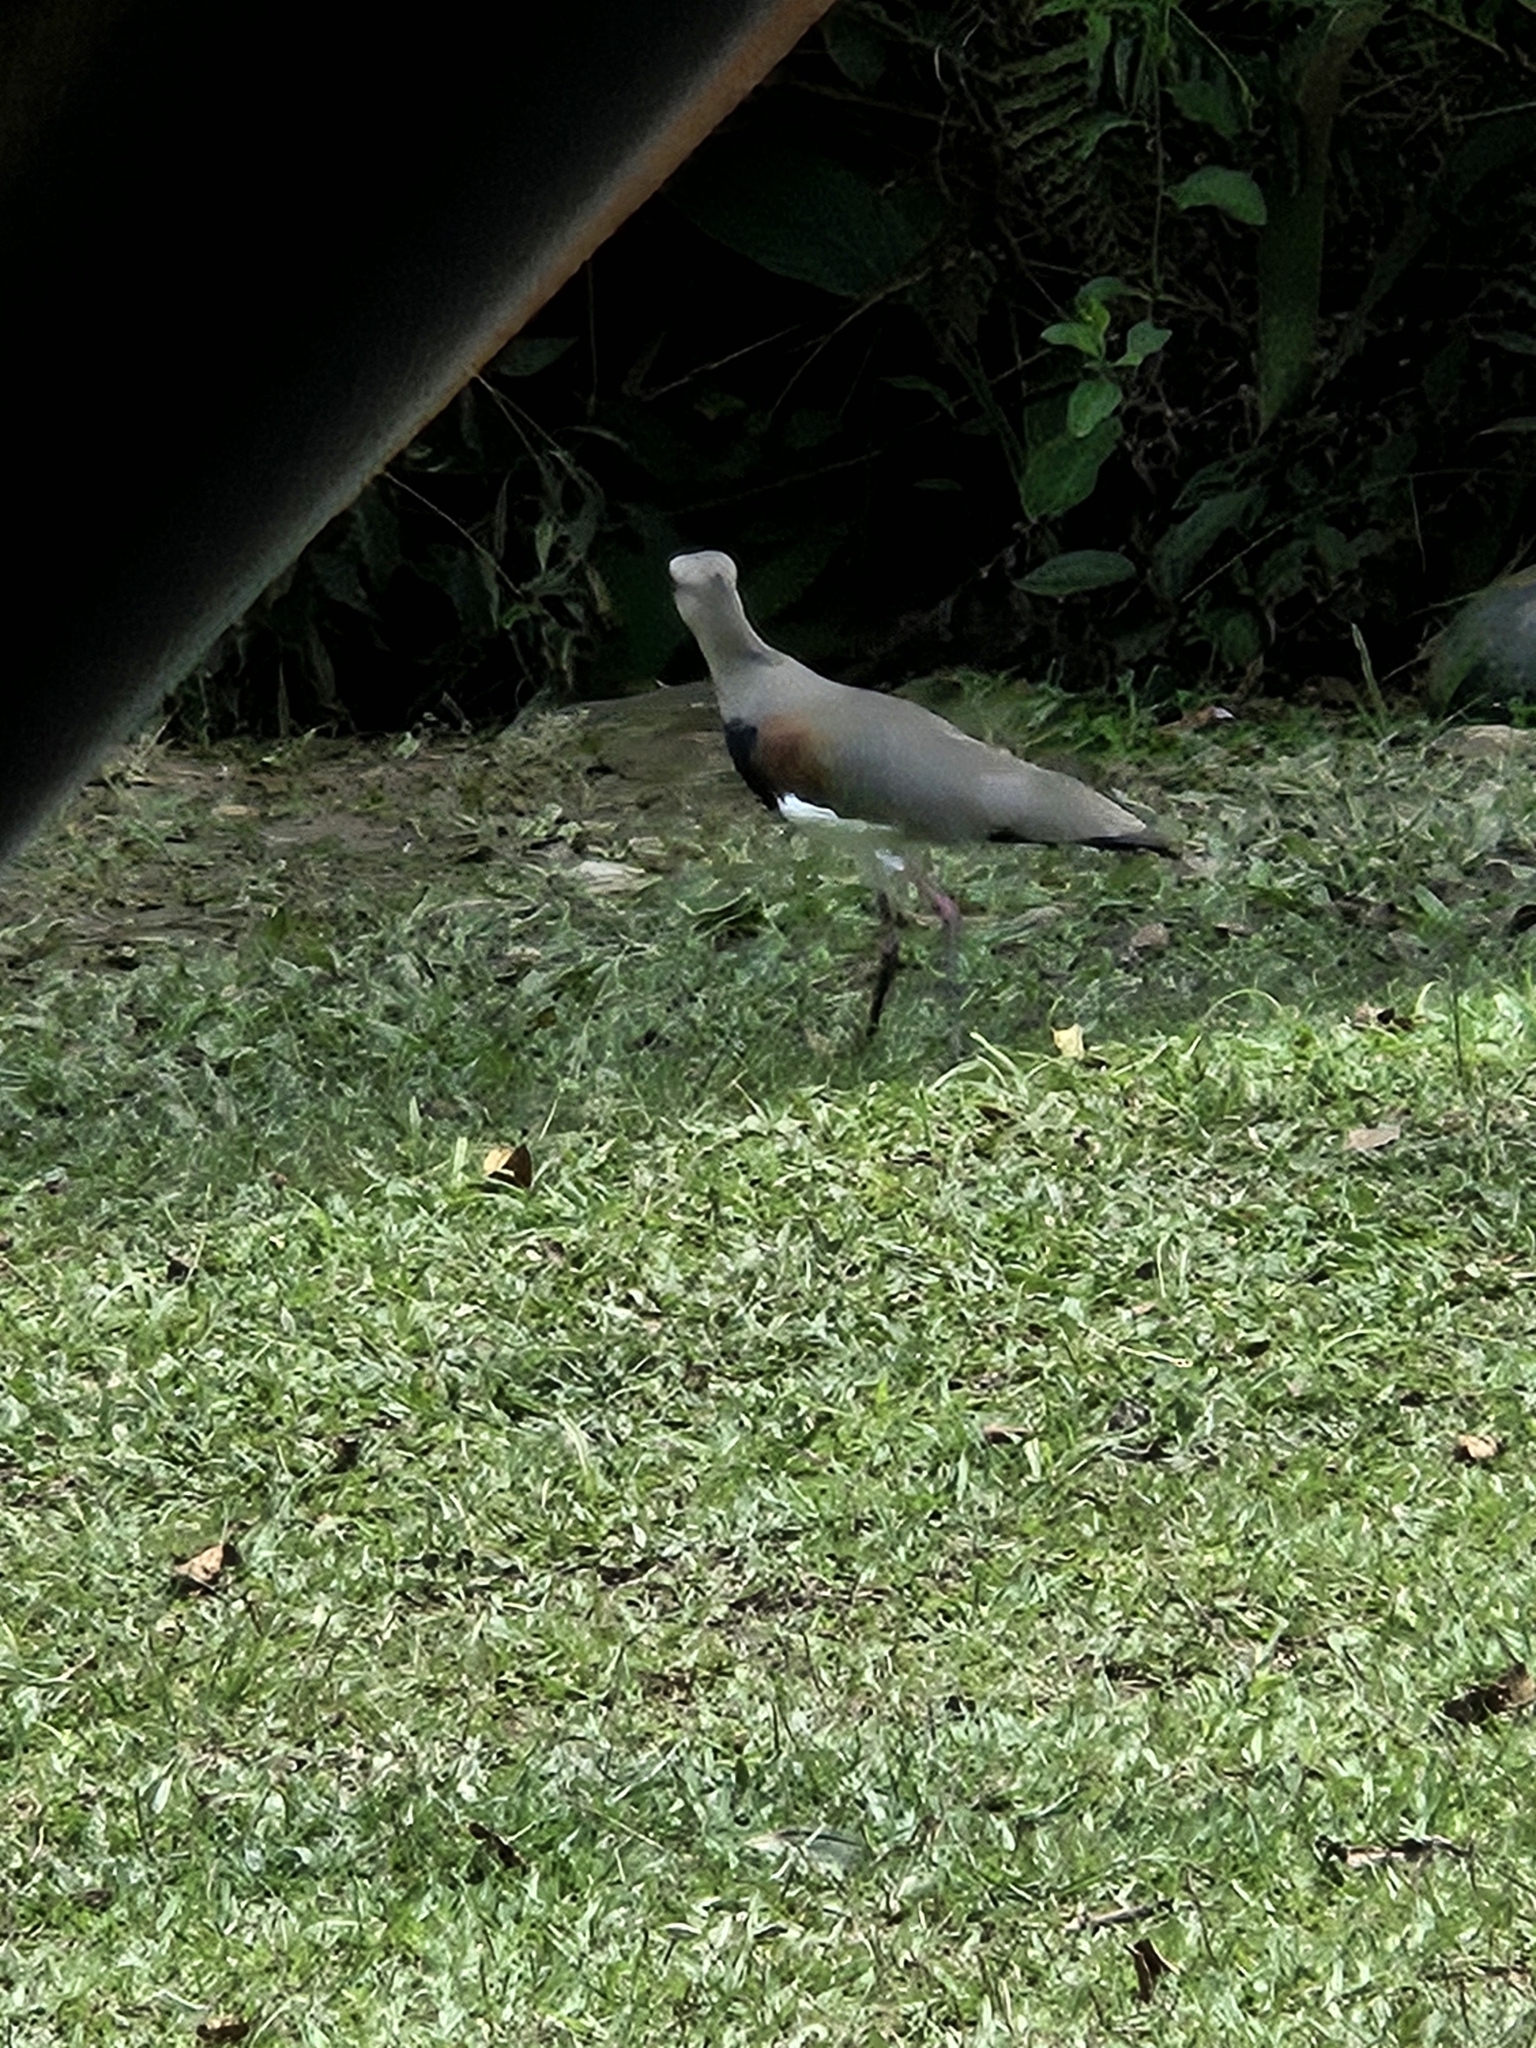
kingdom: Animalia
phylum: Chordata
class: Aves
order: Charadriiformes
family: Charadriidae
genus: Vanellus
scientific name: Vanellus chilensis
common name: Southern lapwing
